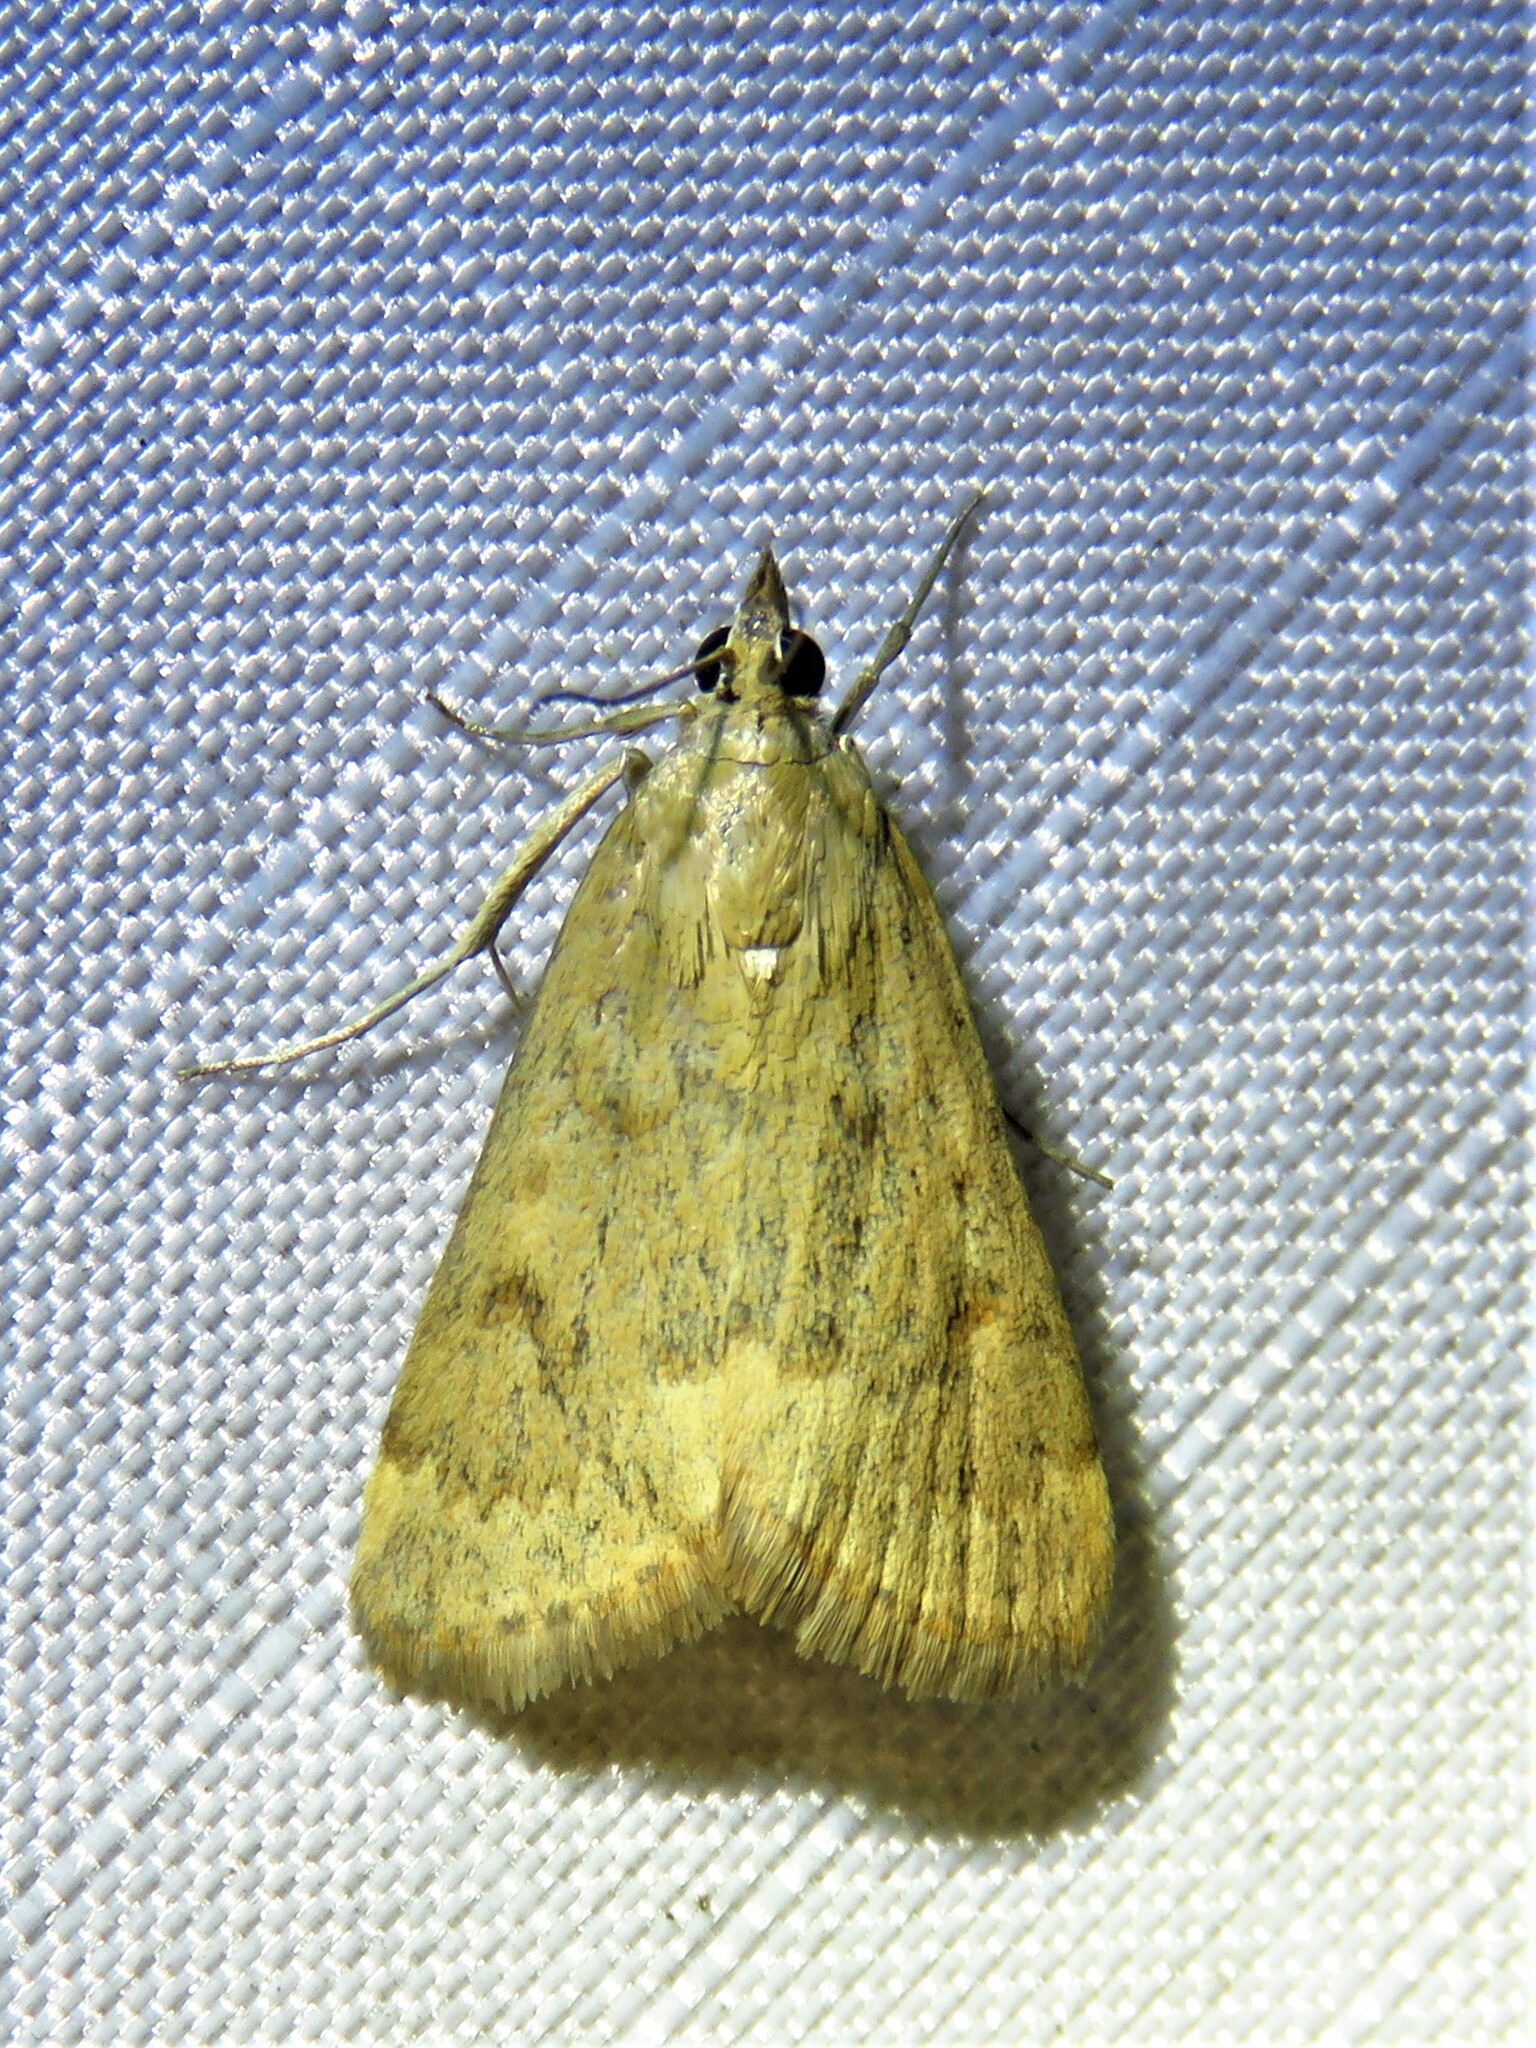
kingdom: Animalia
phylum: Arthropoda
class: Insecta
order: Lepidoptera
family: Crambidae
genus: Achyra
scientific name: Achyra rantalis
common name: Garden webworm
